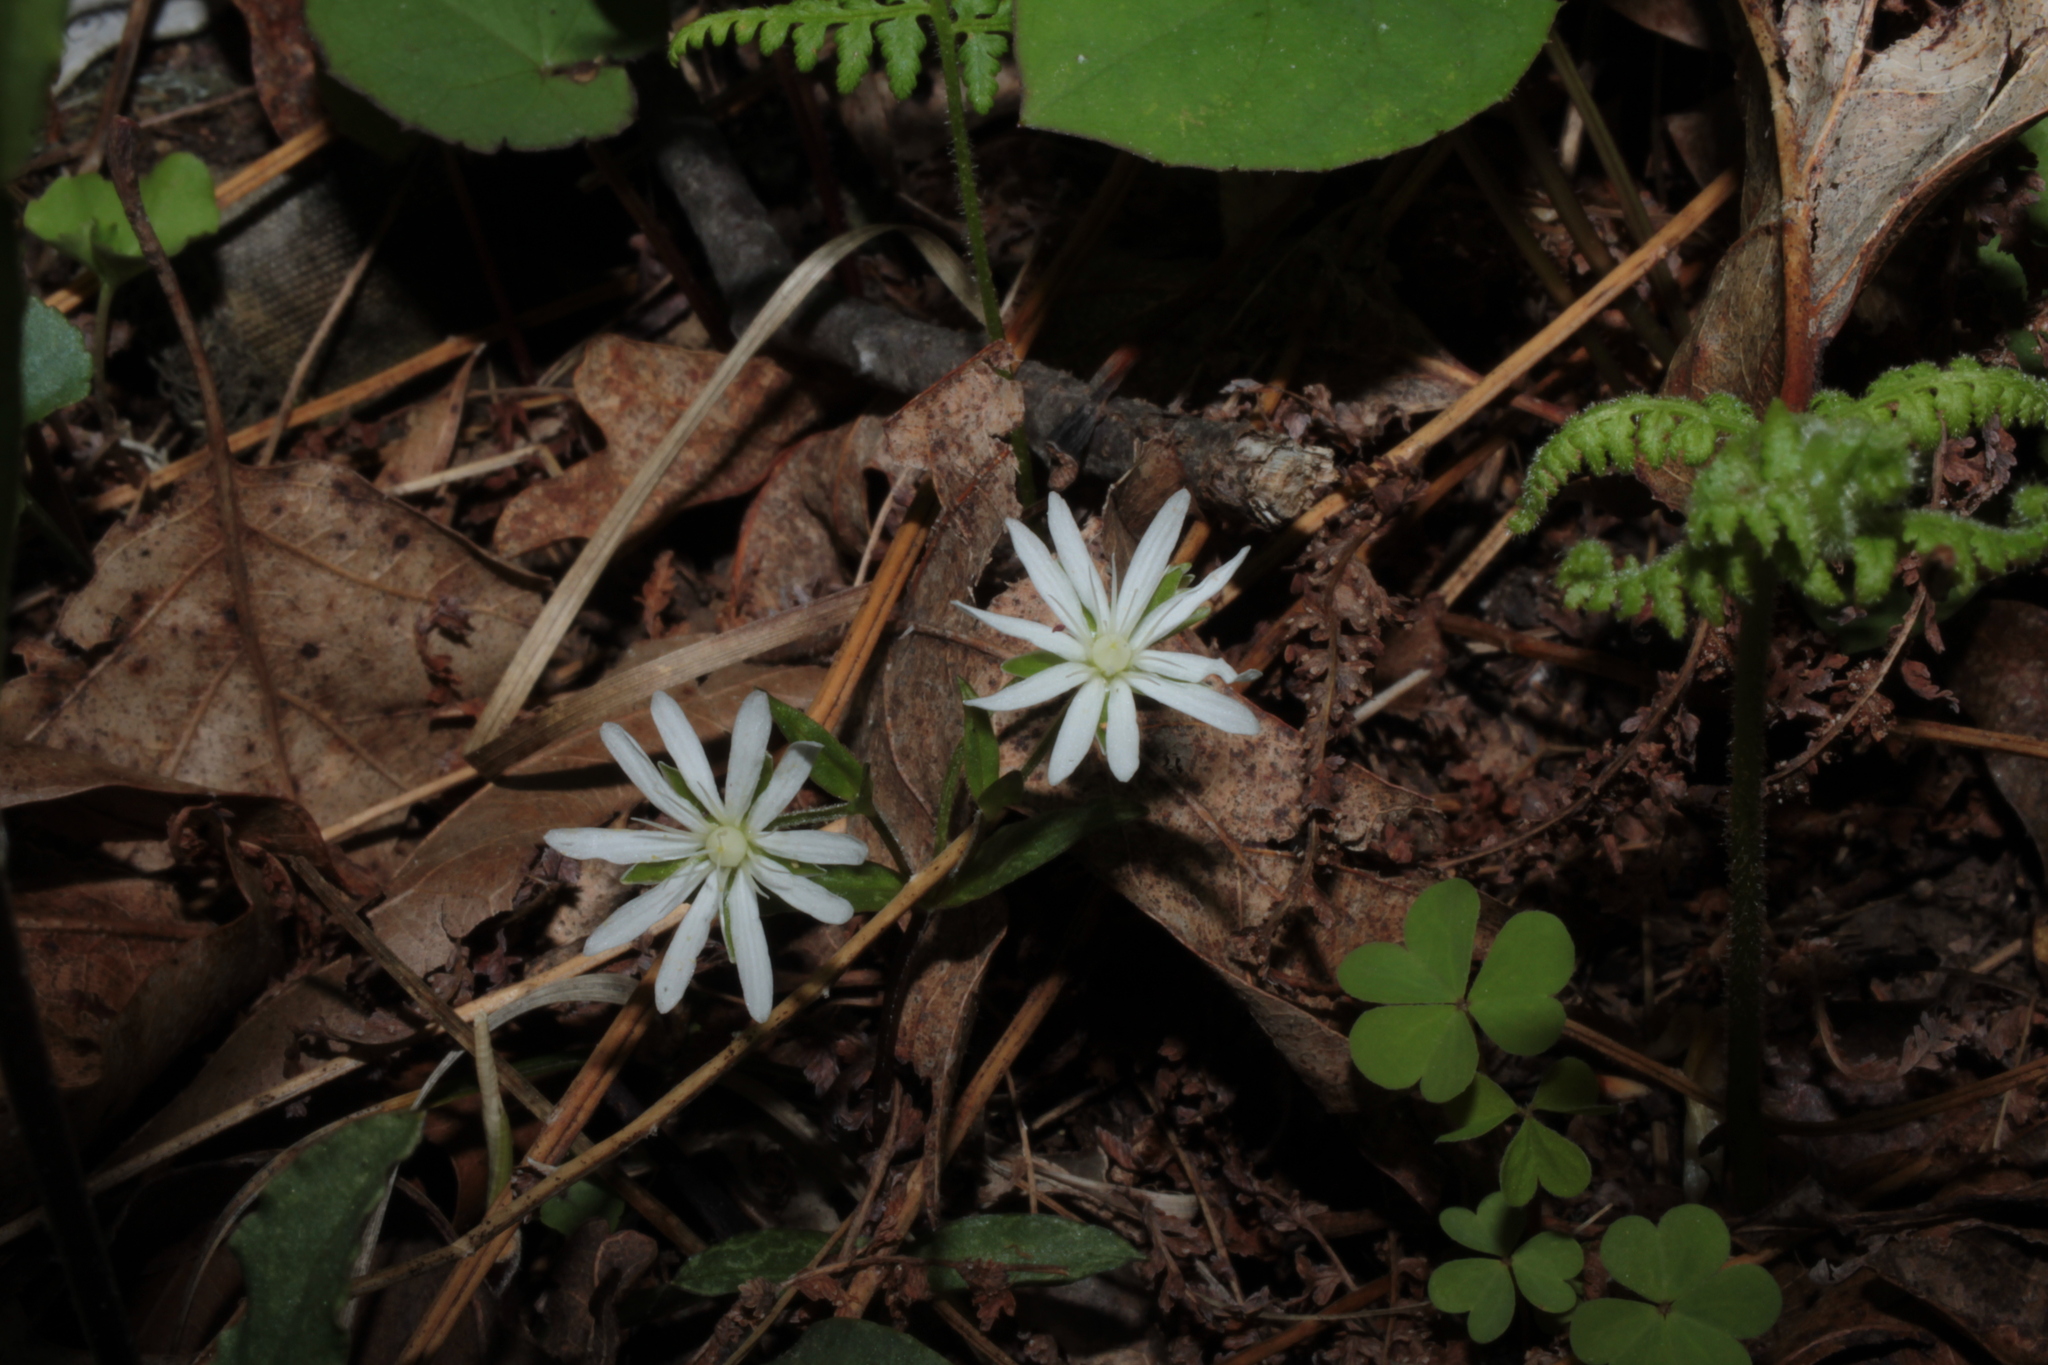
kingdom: Plantae
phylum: Tracheophyta
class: Magnoliopsida
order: Caryophyllales
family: Caryophyllaceae
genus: Stellaria
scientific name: Stellaria pubera
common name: Star chickweed
